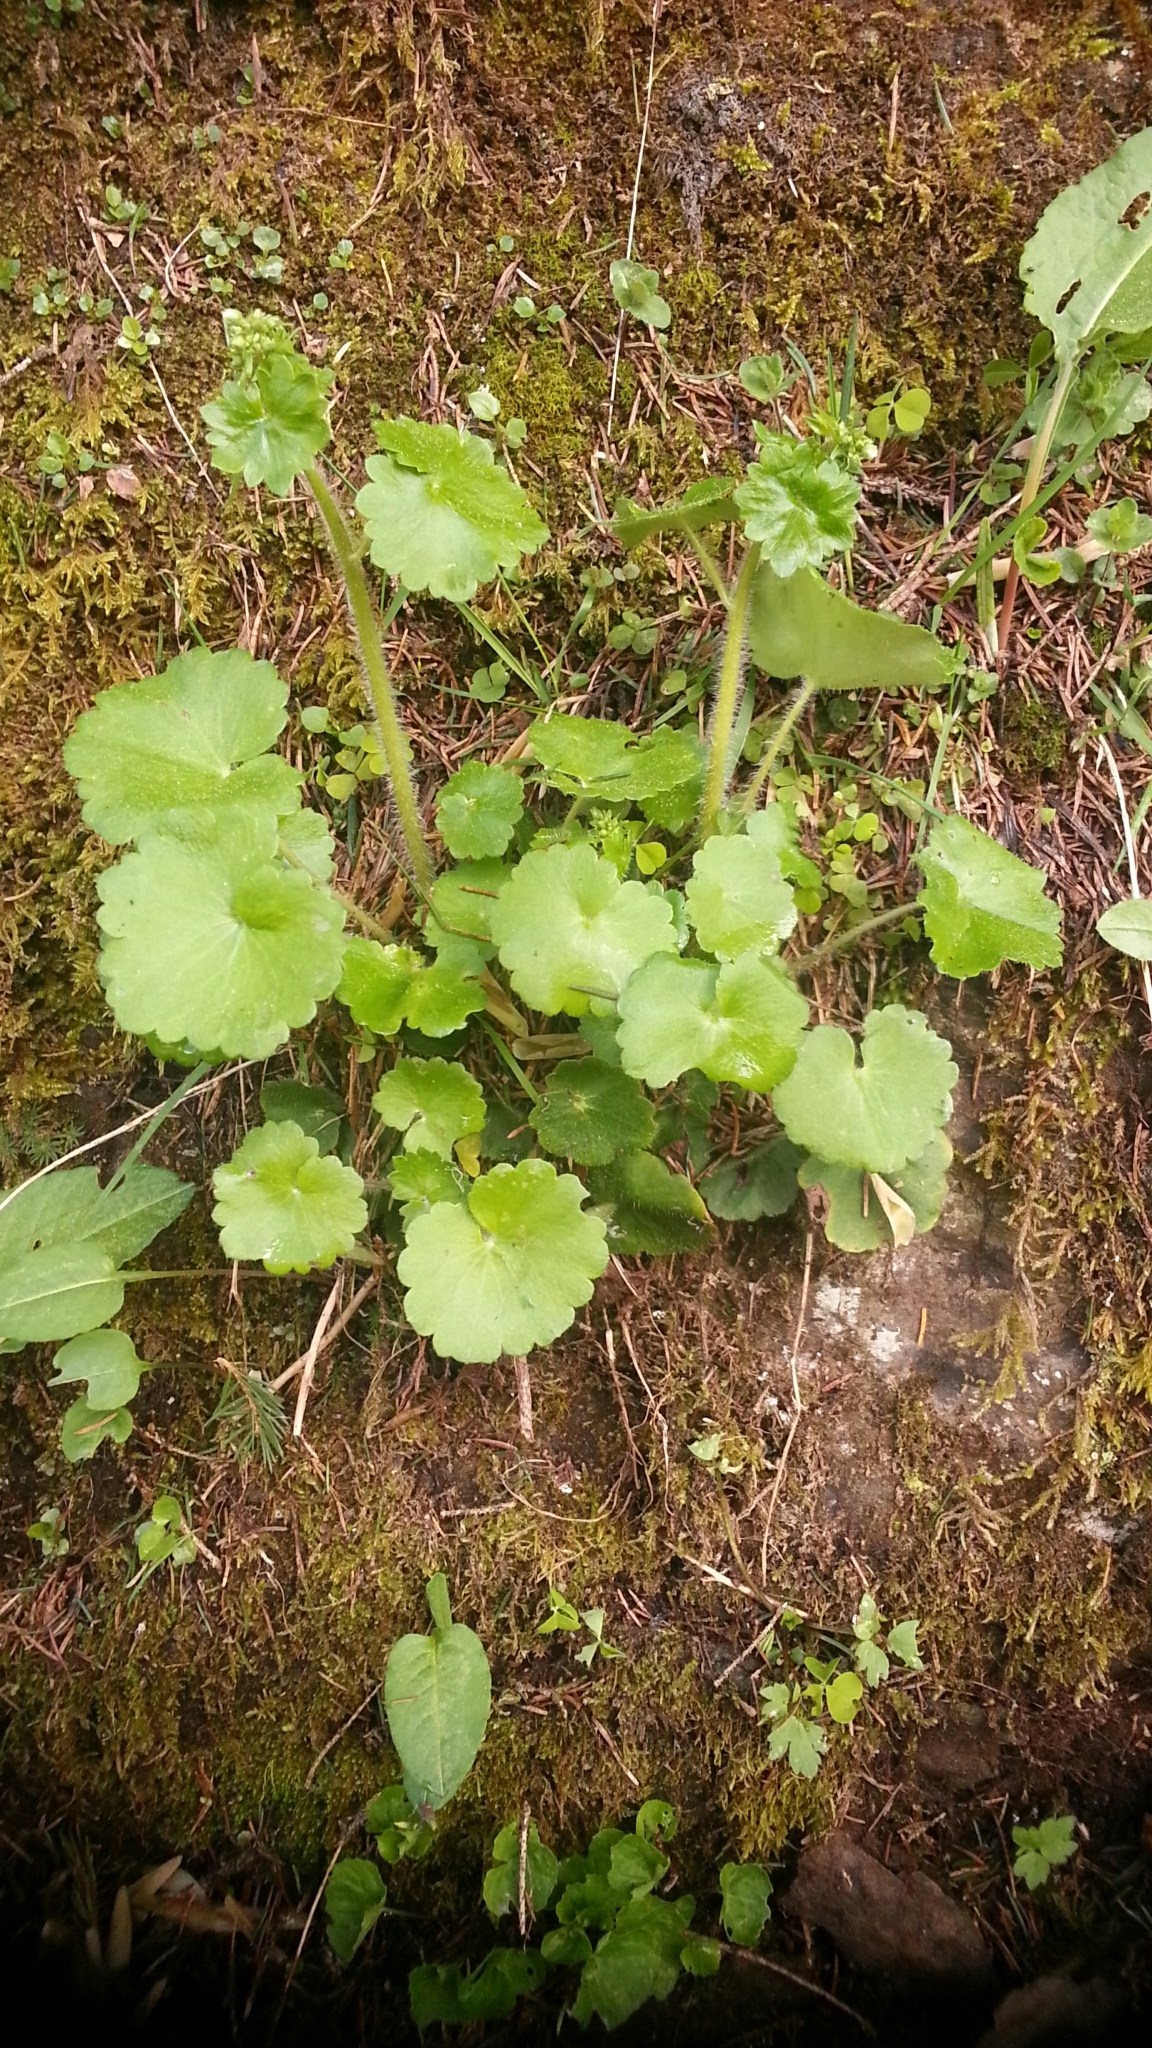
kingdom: Plantae
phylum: Tracheophyta
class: Magnoliopsida
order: Saxifragales
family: Saxifragaceae
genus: Saxifraga
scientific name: Saxifraga rotundifolia
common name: Round-leaved saxifrage
